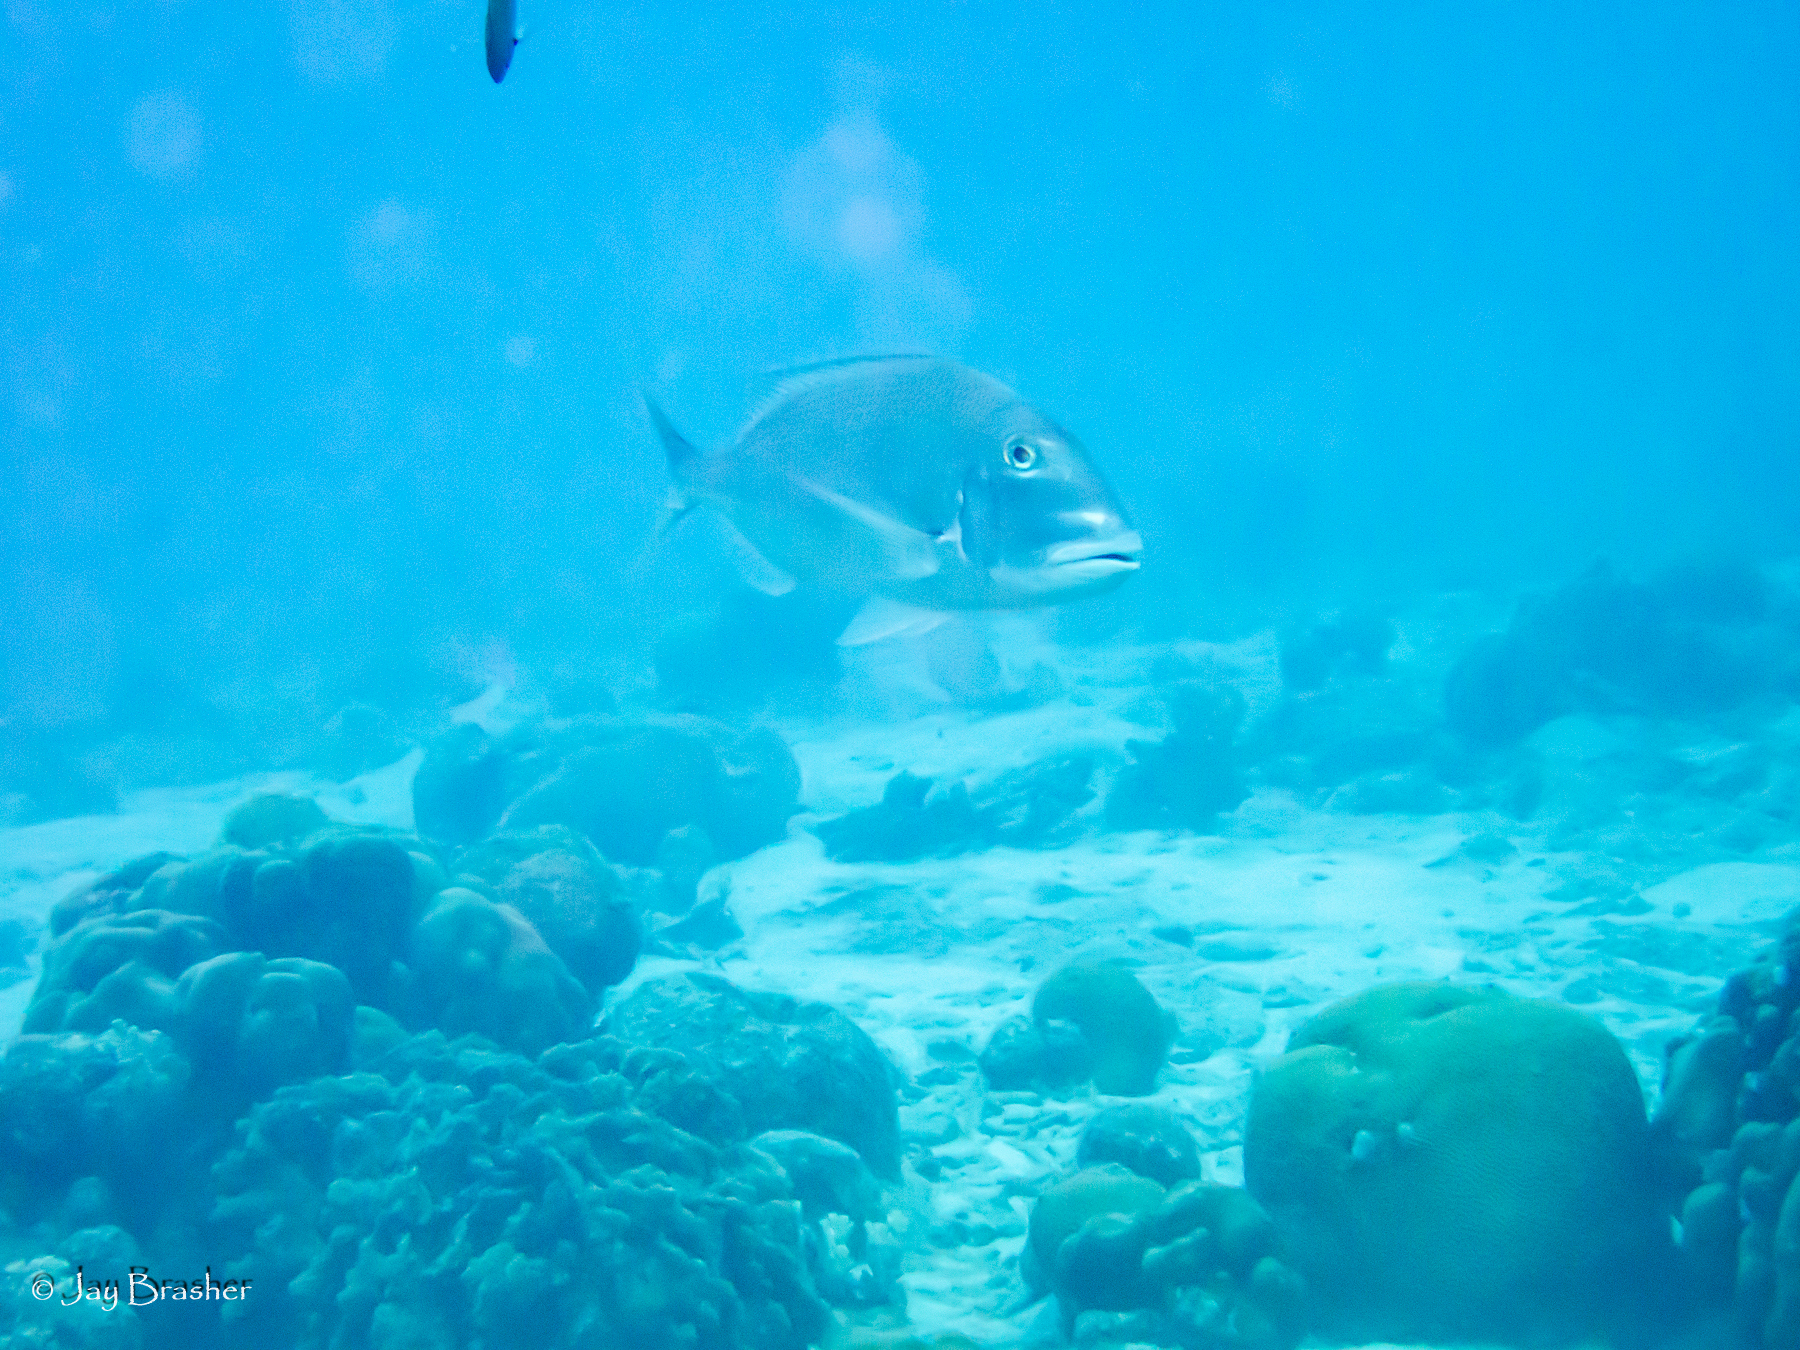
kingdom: Animalia
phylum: Chordata
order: Perciformes
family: Sparidae
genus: Calamus
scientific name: Calamus bajonado
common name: Jolthead porgy
